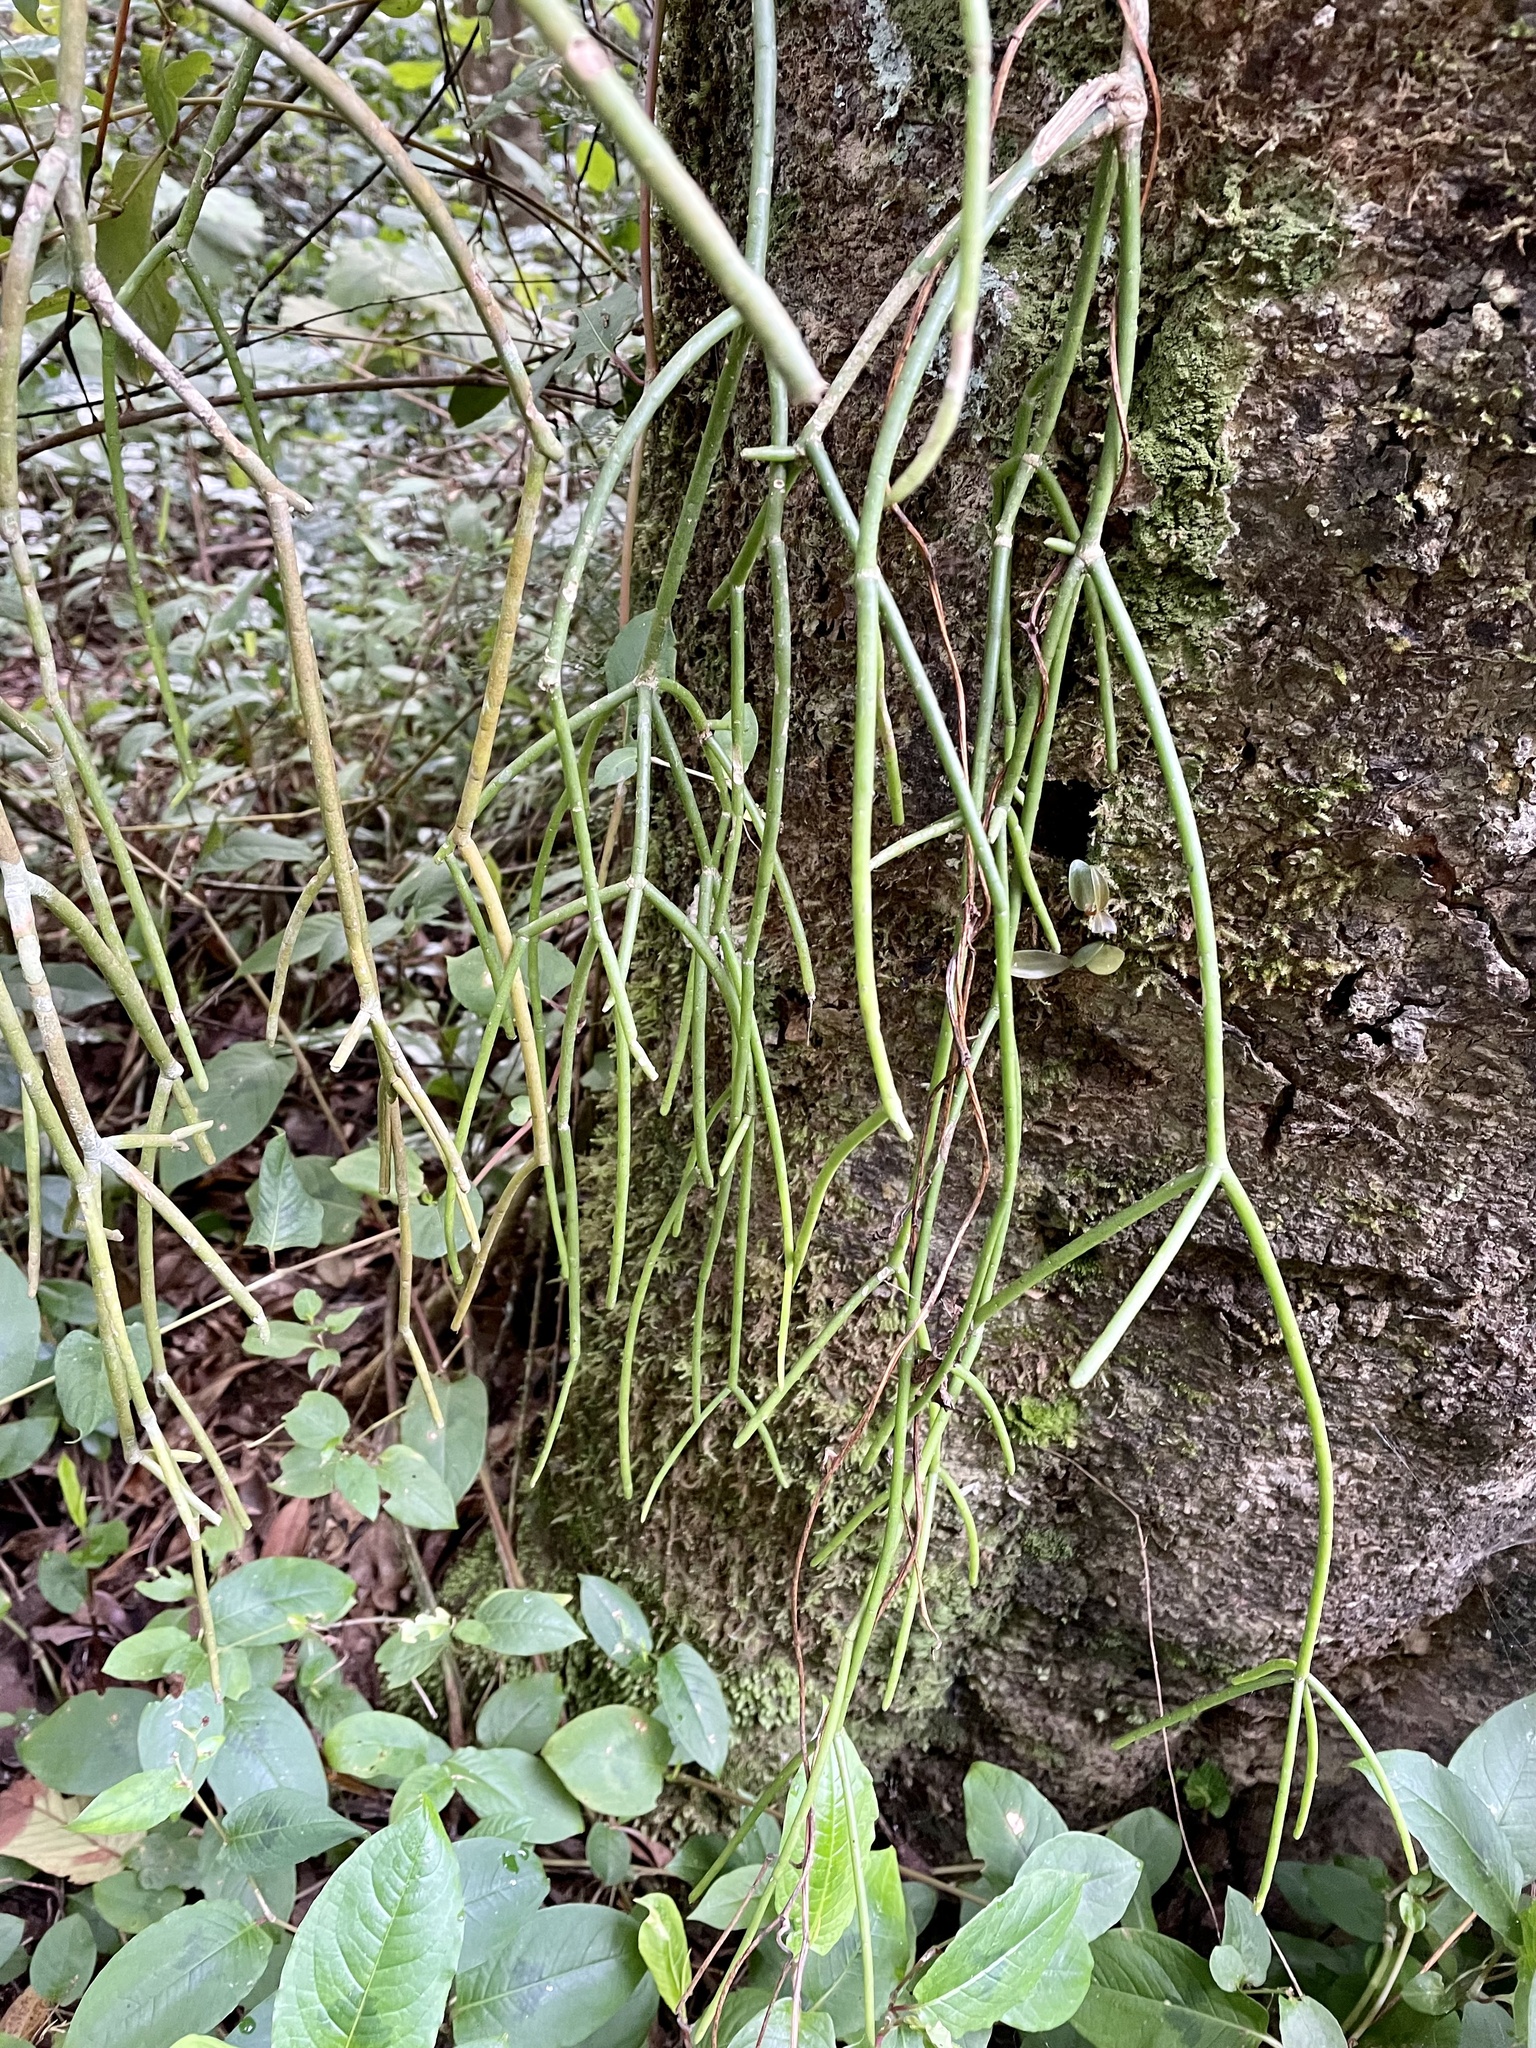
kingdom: Plantae
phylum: Tracheophyta
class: Magnoliopsida
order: Caryophyllales
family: Cactaceae
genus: Rhipsalis
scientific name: Rhipsalis baccifera
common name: Mistletoe cactus
